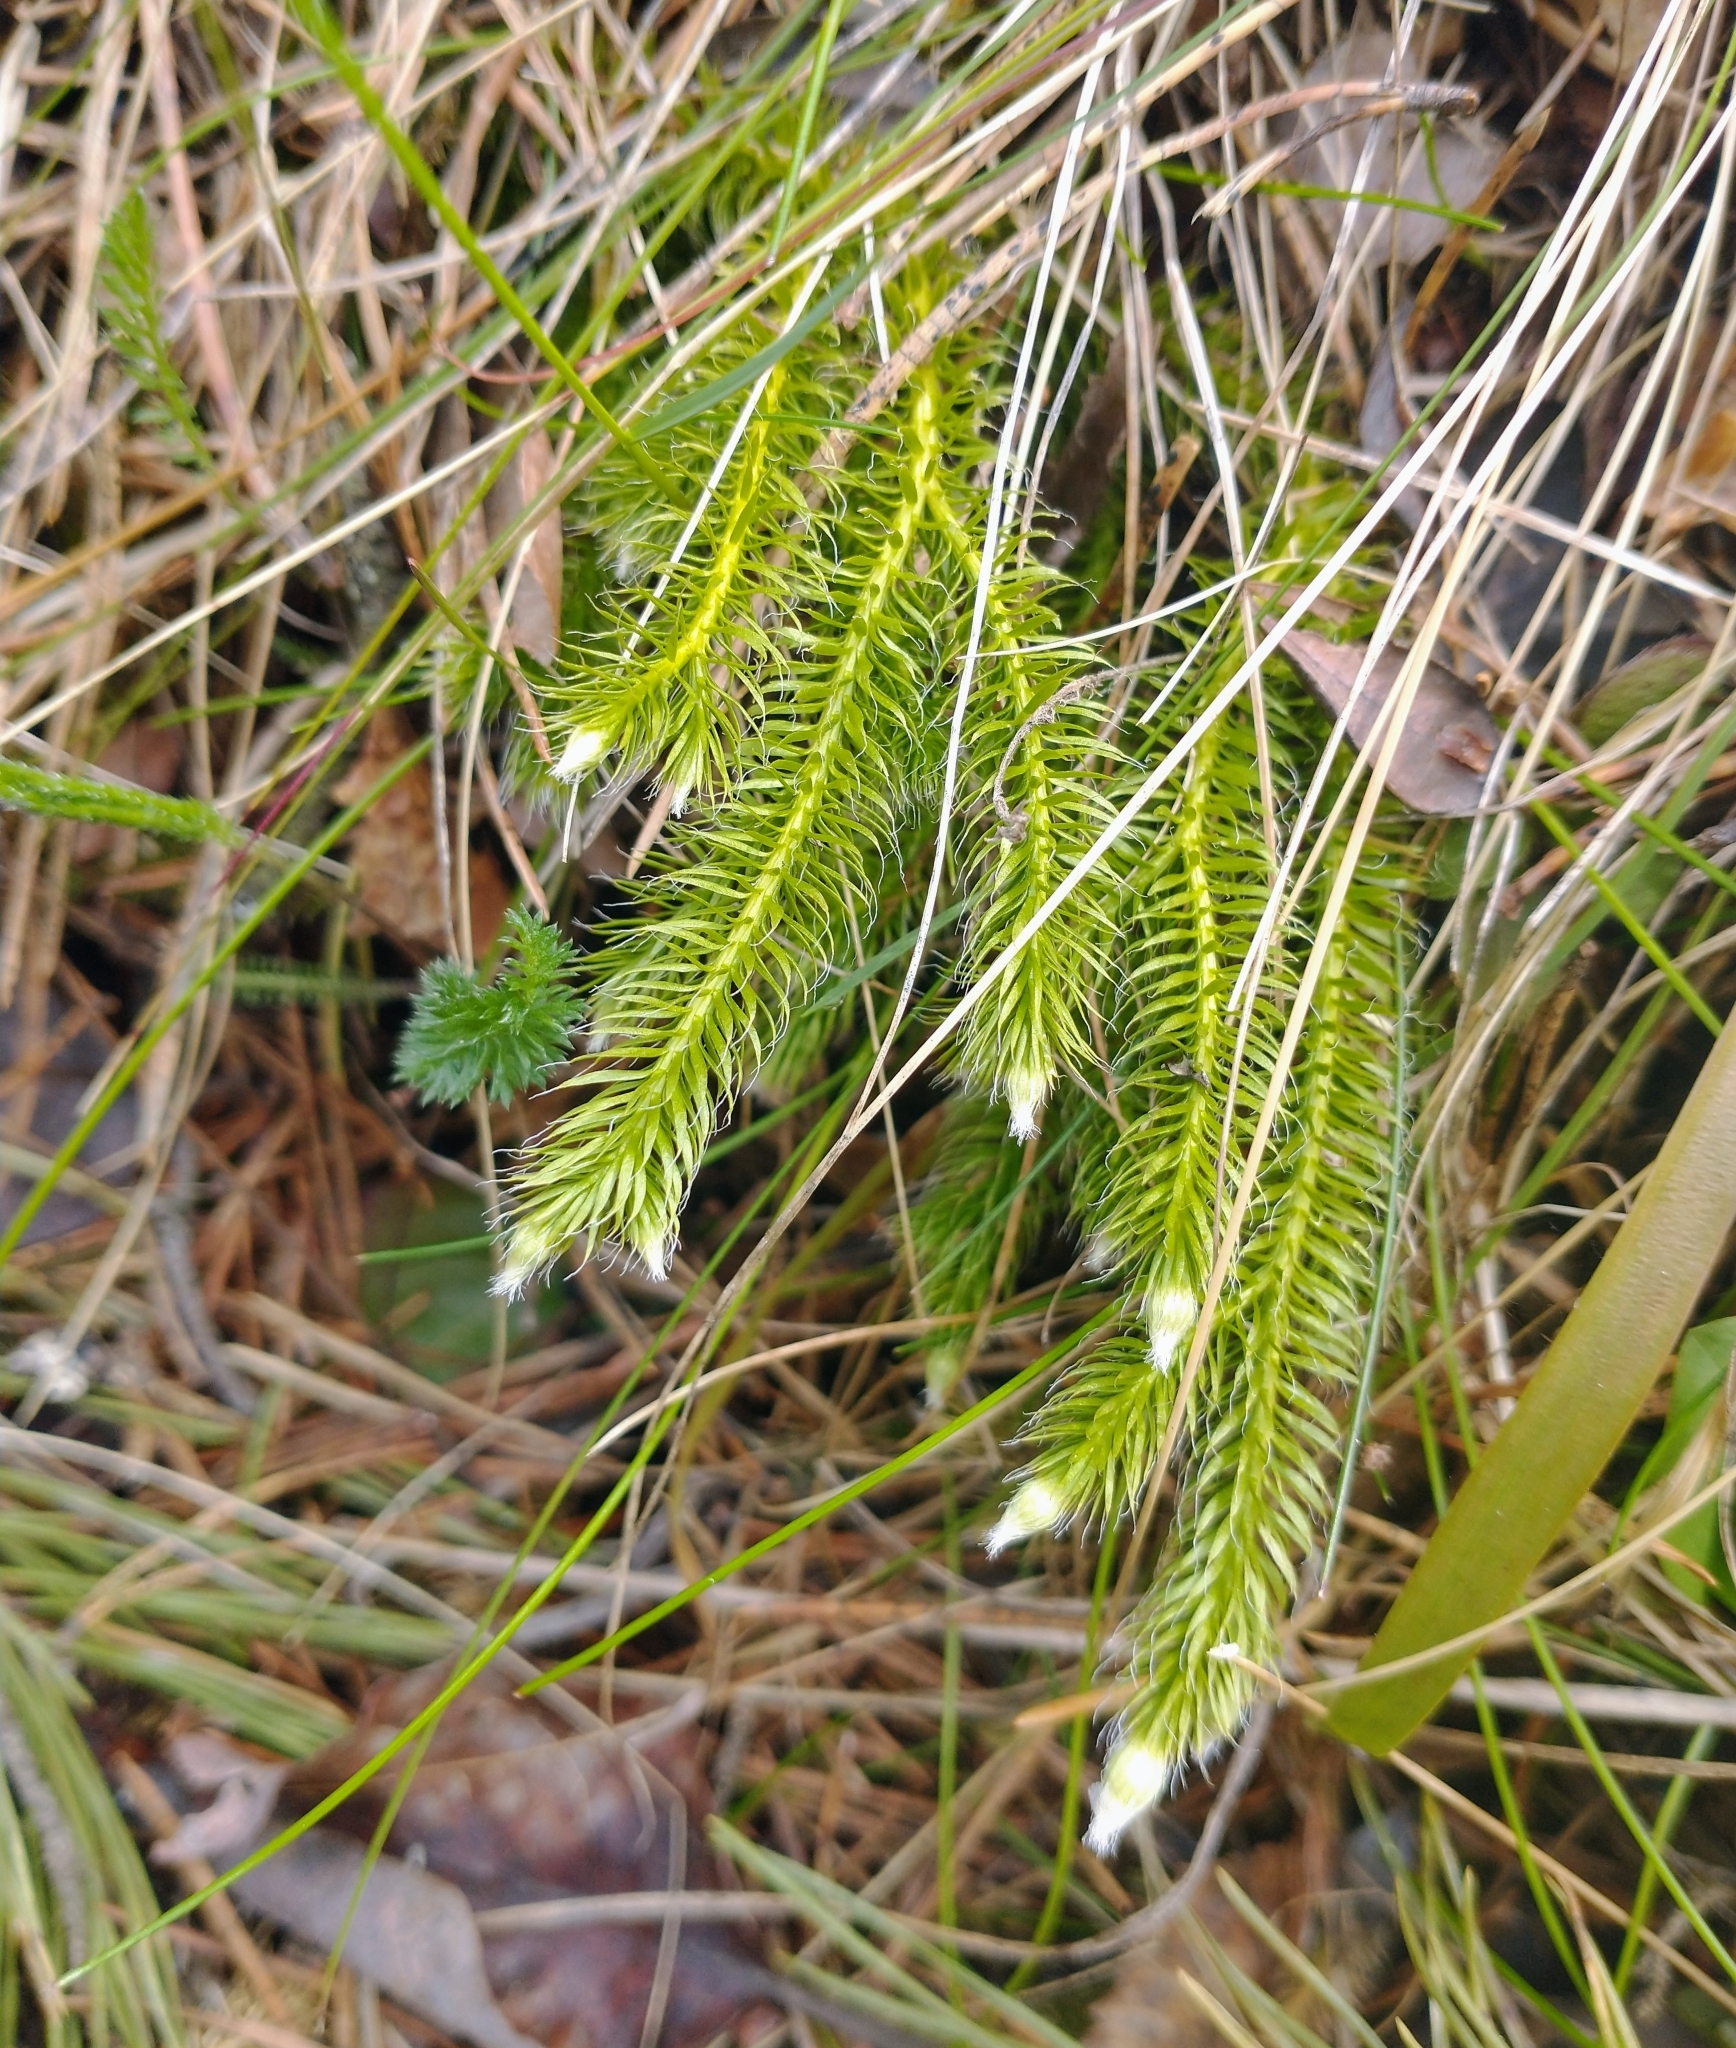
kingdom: Plantae
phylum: Tracheophyta
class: Lycopodiopsida
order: Lycopodiales
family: Lycopodiaceae
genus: Lycopodium
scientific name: Lycopodium clavatum
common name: Stag's-horn clubmoss
